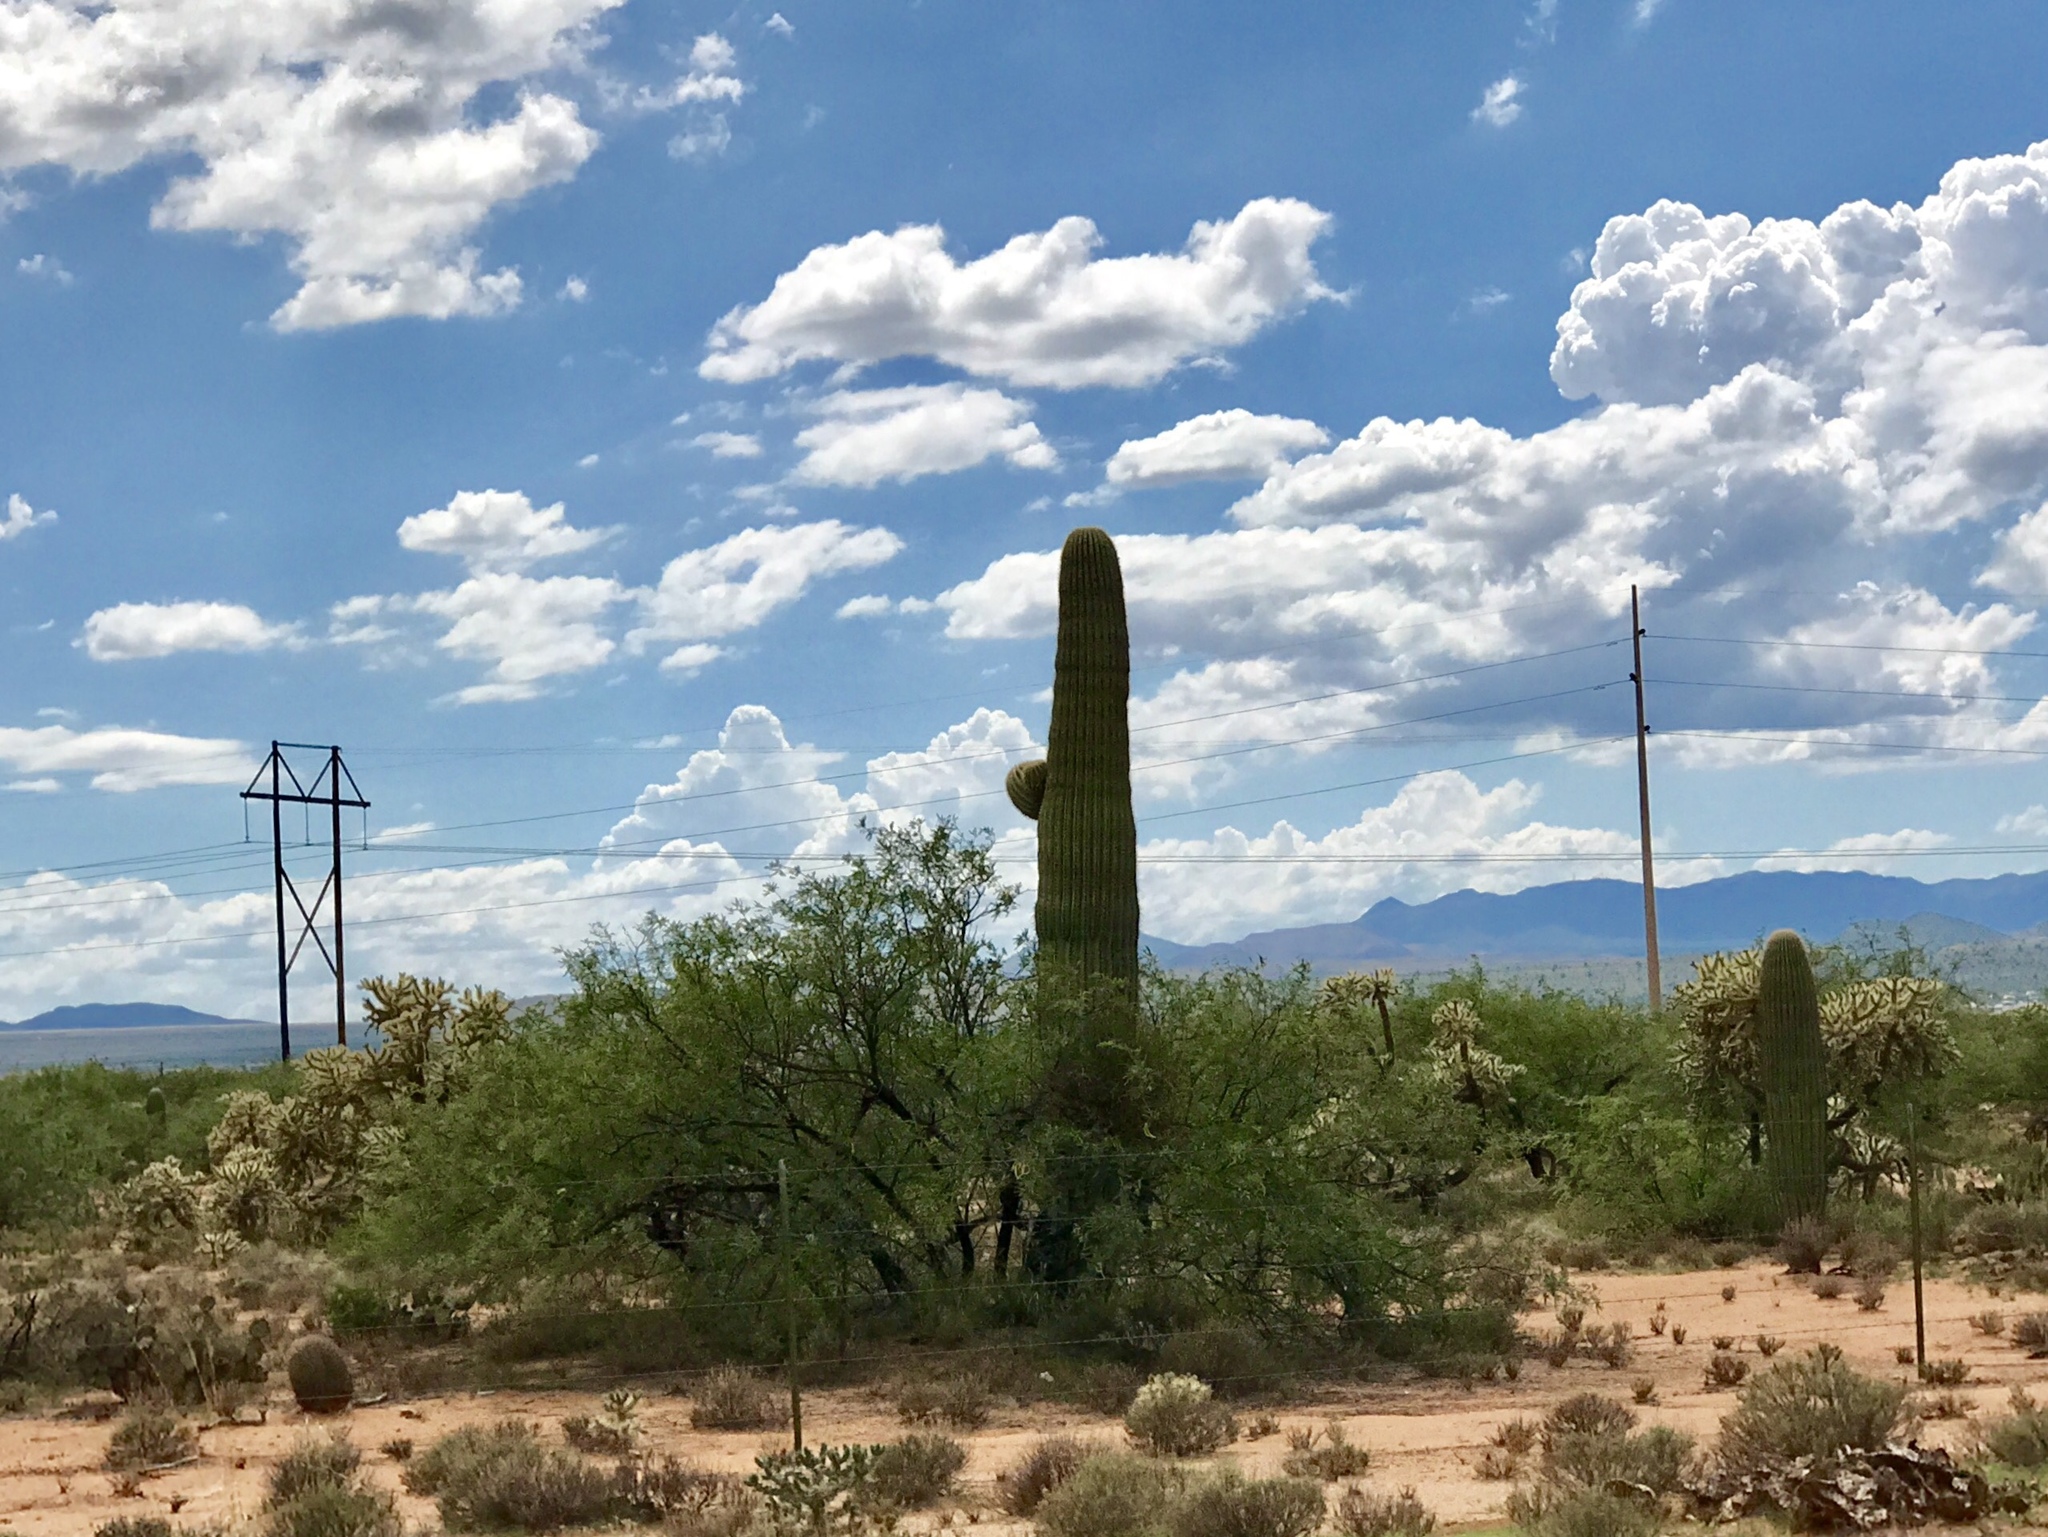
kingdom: Plantae
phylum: Tracheophyta
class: Magnoliopsida
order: Caryophyllales
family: Cactaceae
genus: Carnegiea
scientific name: Carnegiea gigantea
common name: Saguaro
